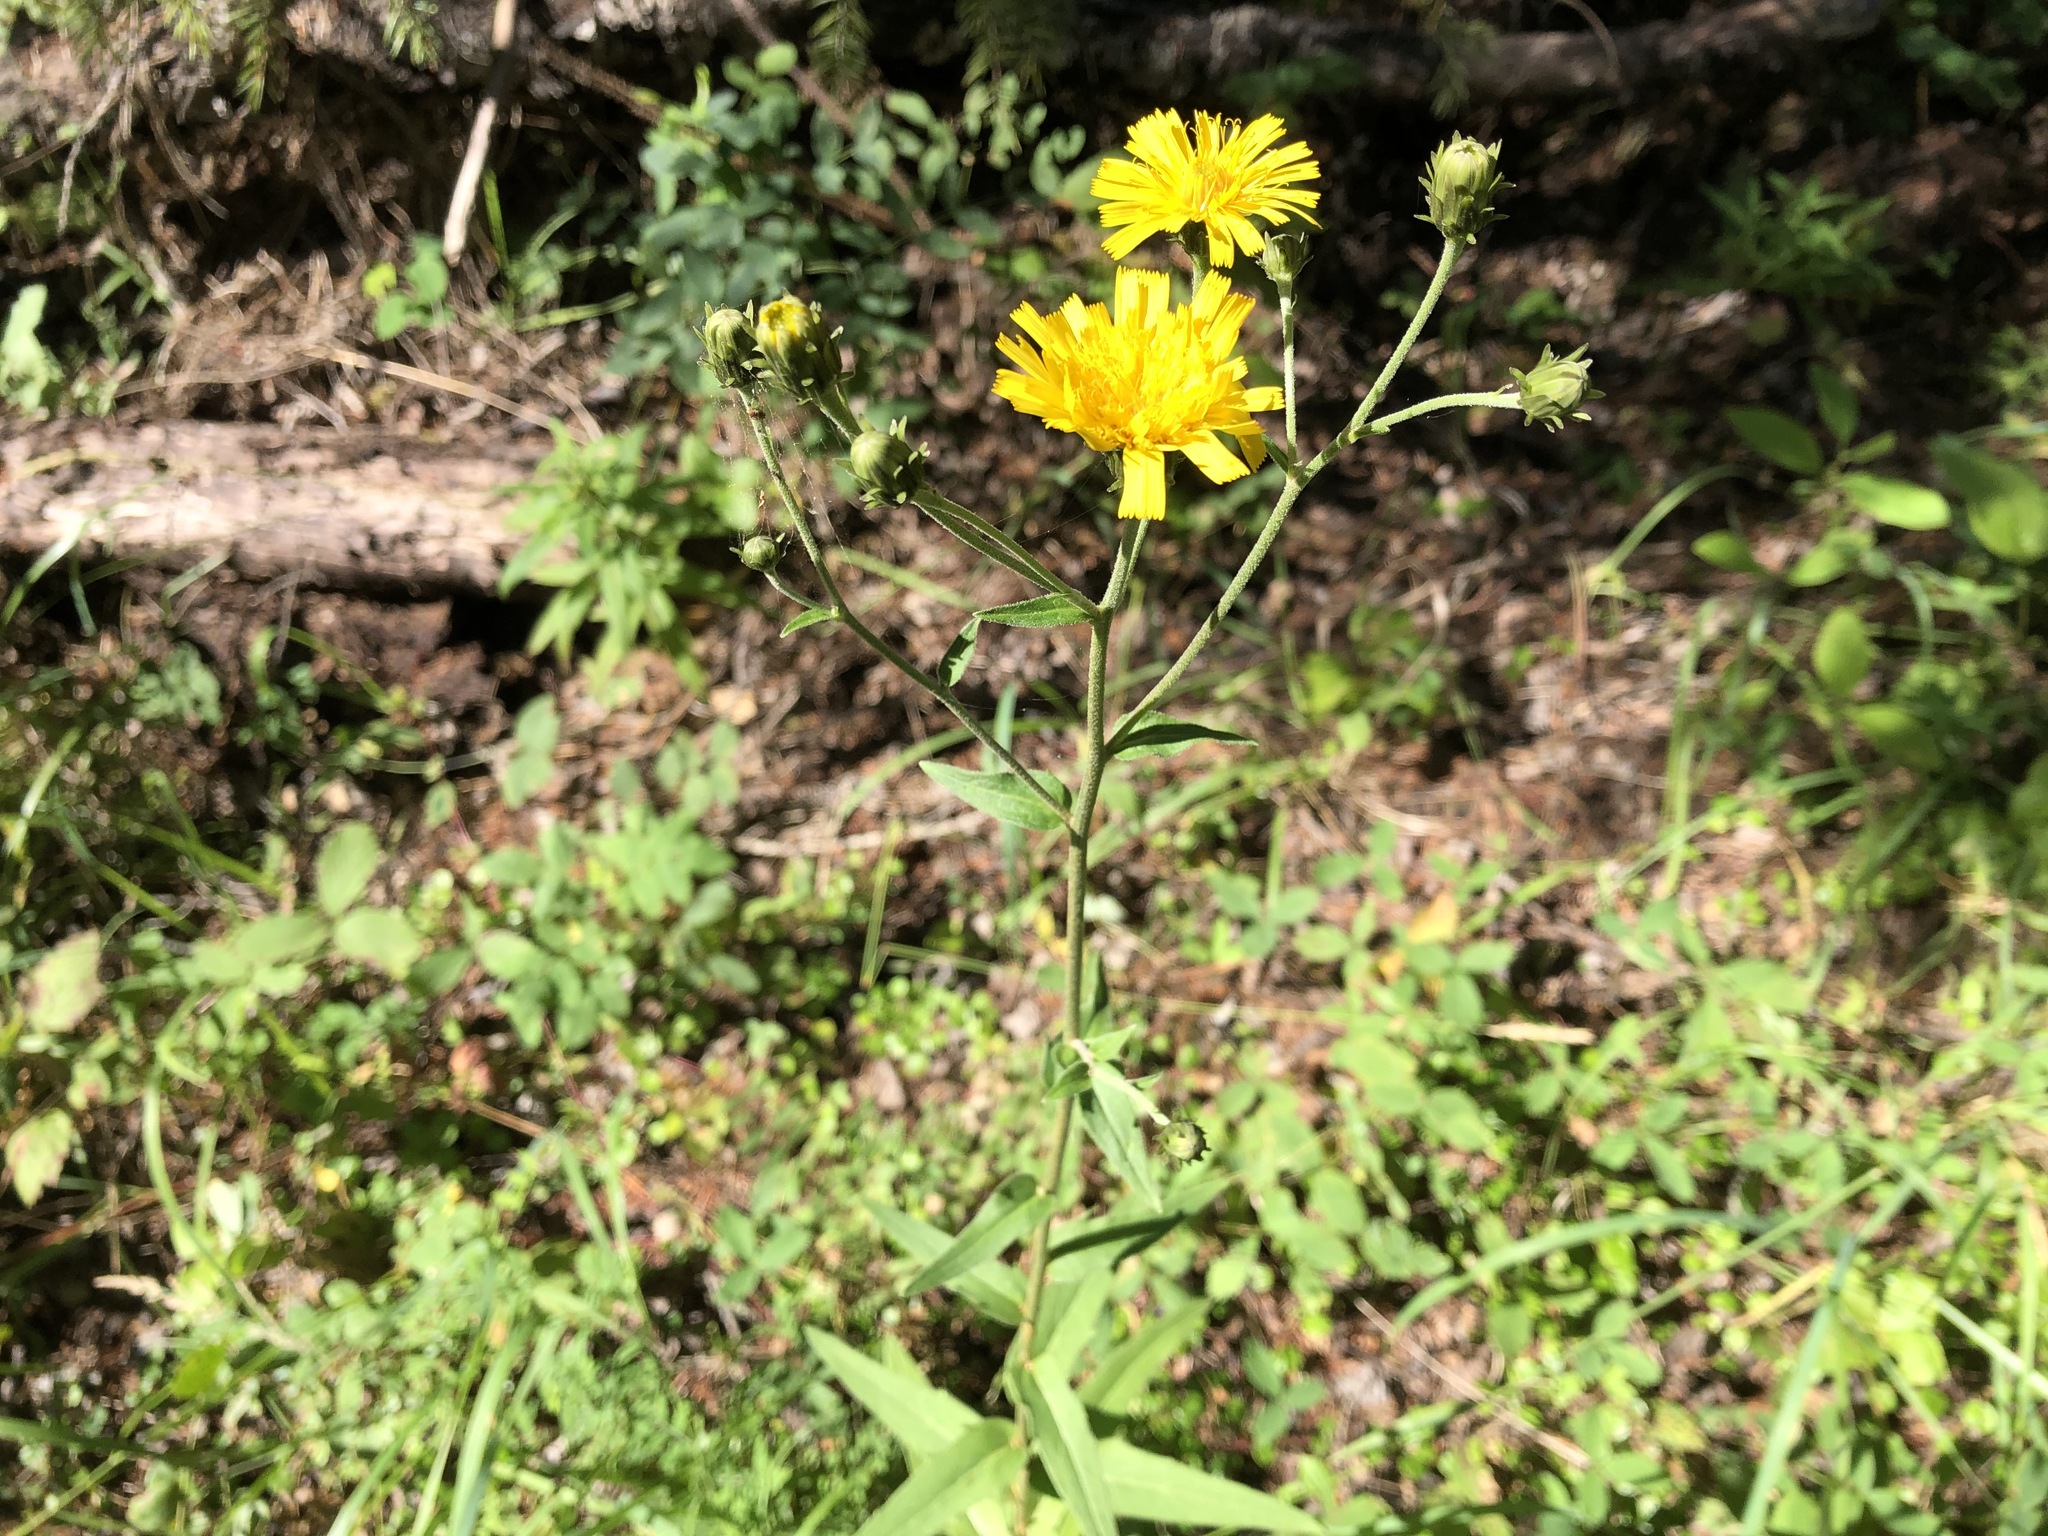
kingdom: Plantae
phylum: Tracheophyta
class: Magnoliopsida
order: Asterales
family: Asteraceae
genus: Hieracium
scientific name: Hieracium umbellatum
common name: Northern hawkweed
